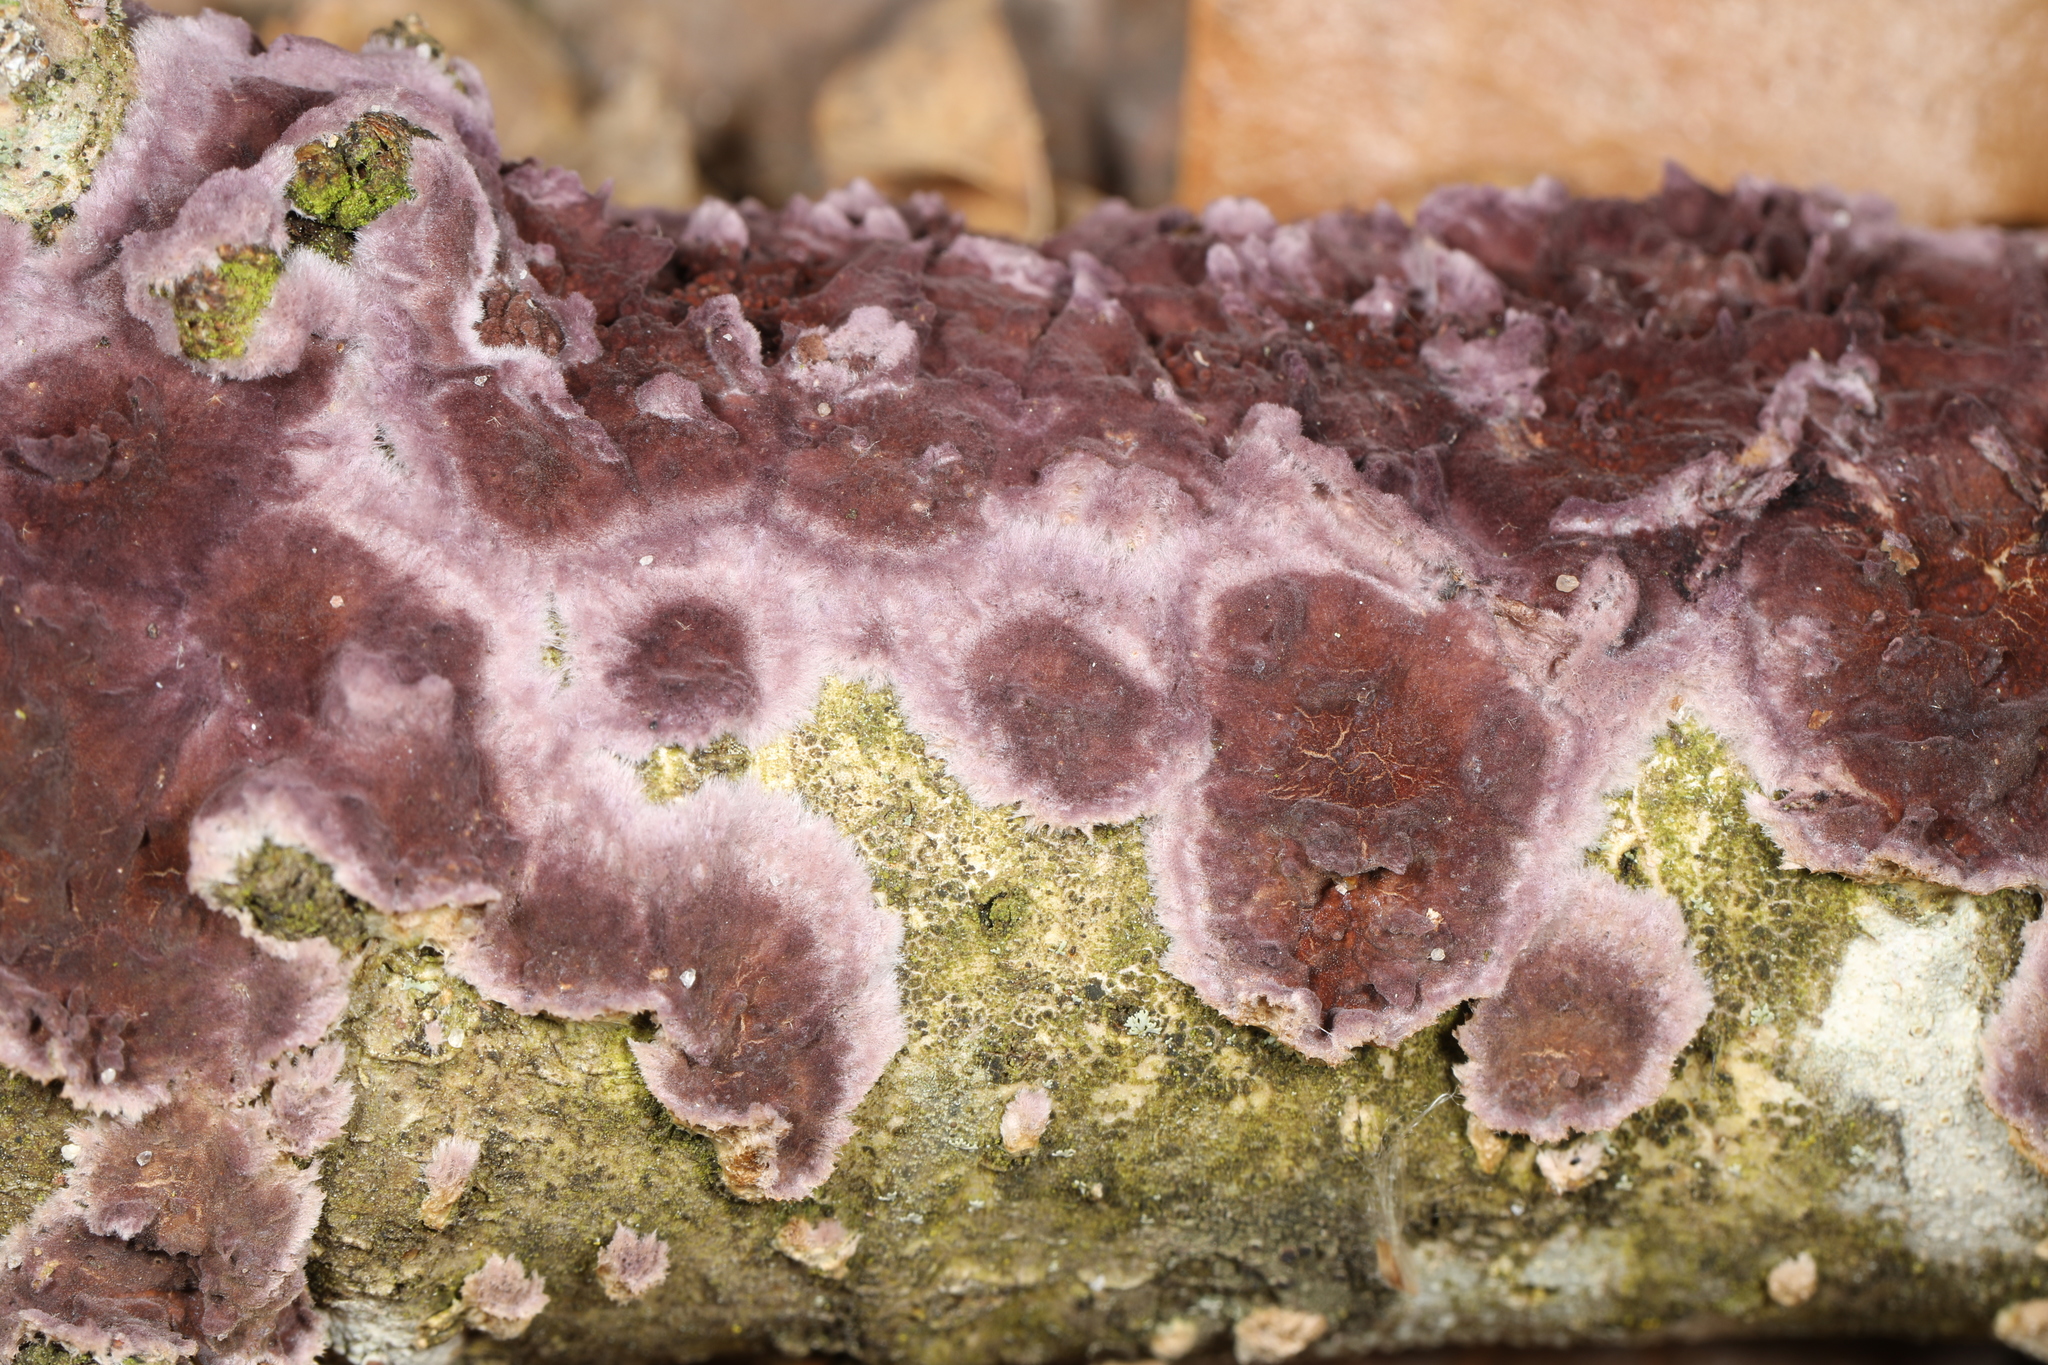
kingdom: Fungi
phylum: Basidiomycota
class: Agaricomycetes
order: Agaricales
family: Cyphellaceae
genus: Chondrostereum
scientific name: Chondrostereum purpureum
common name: Silver leaf disease
